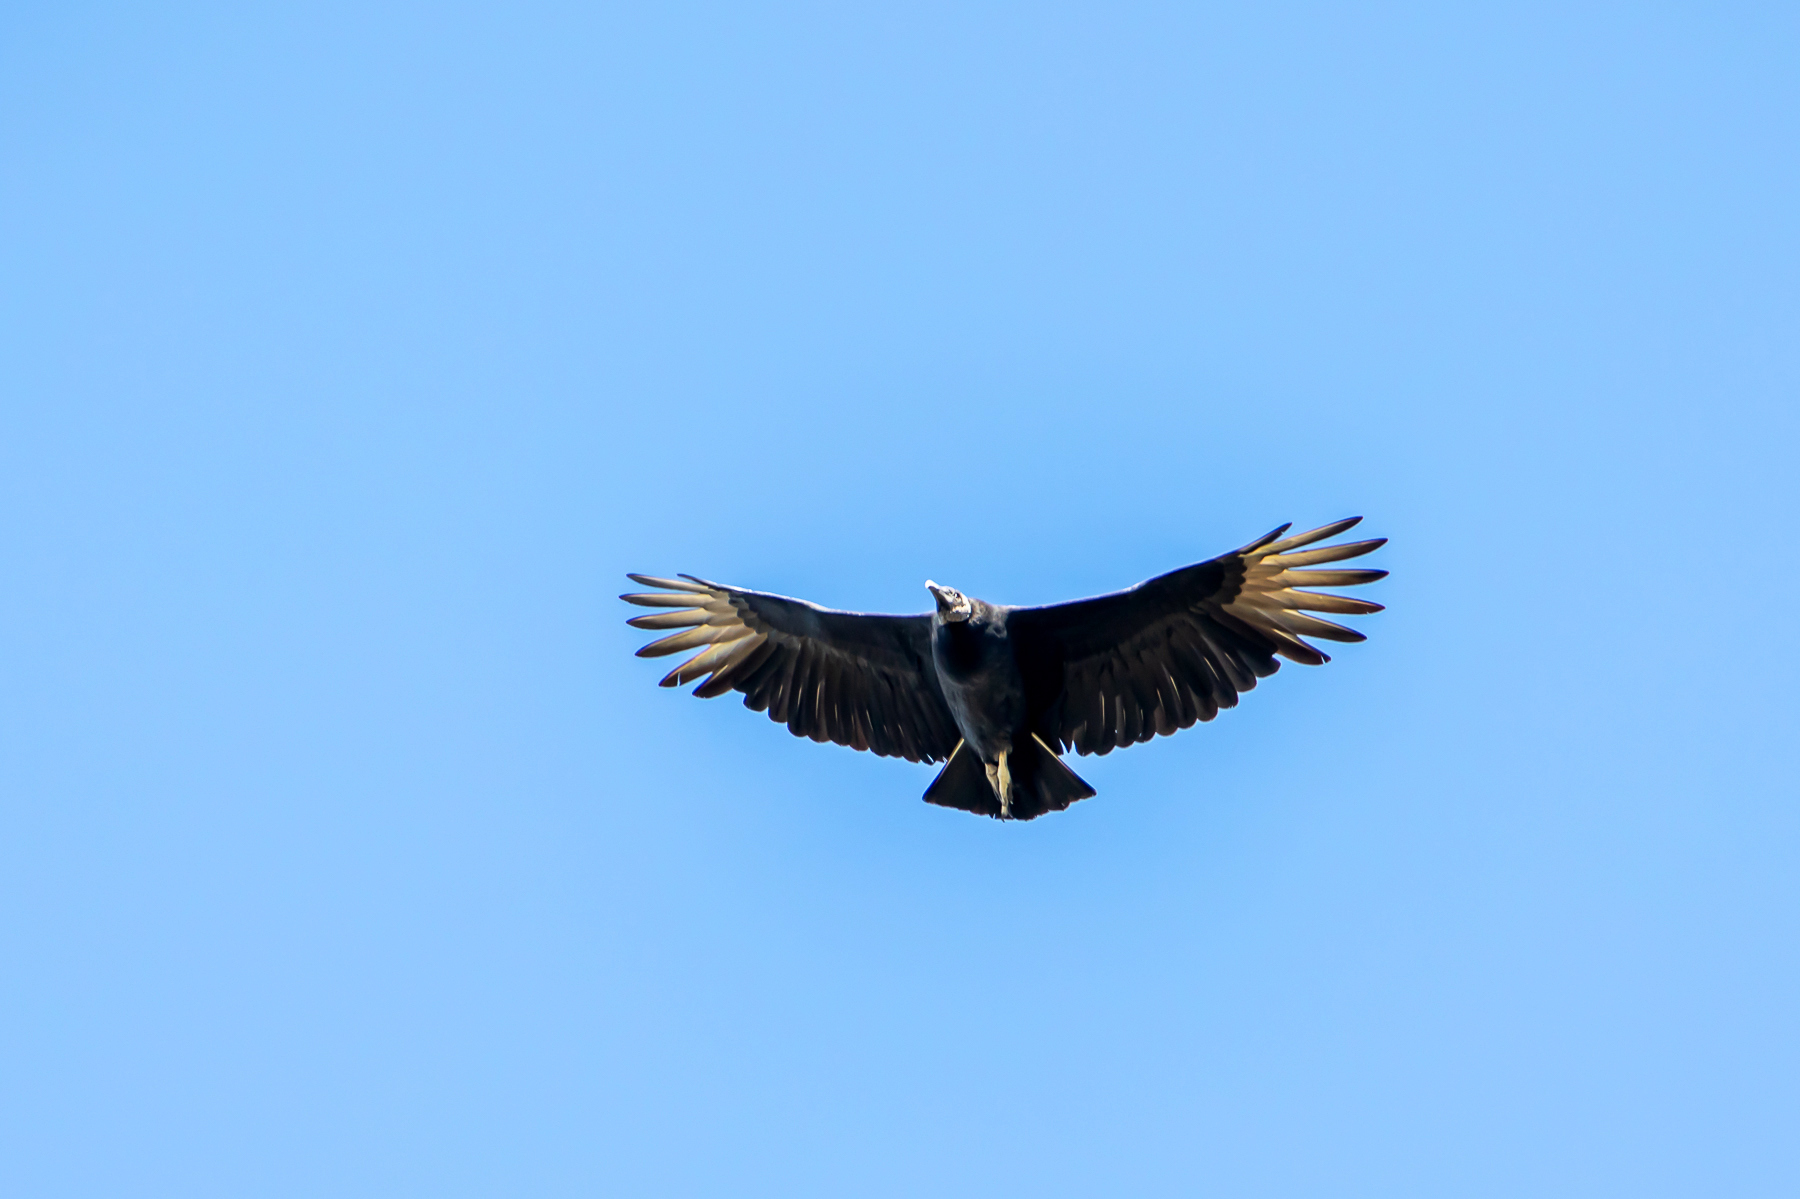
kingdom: Animalia
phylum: Chordata
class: Aves
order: Accipitriformes
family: Cathartidae
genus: Coragyps
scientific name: Coragyps atratus
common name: Black vulture
